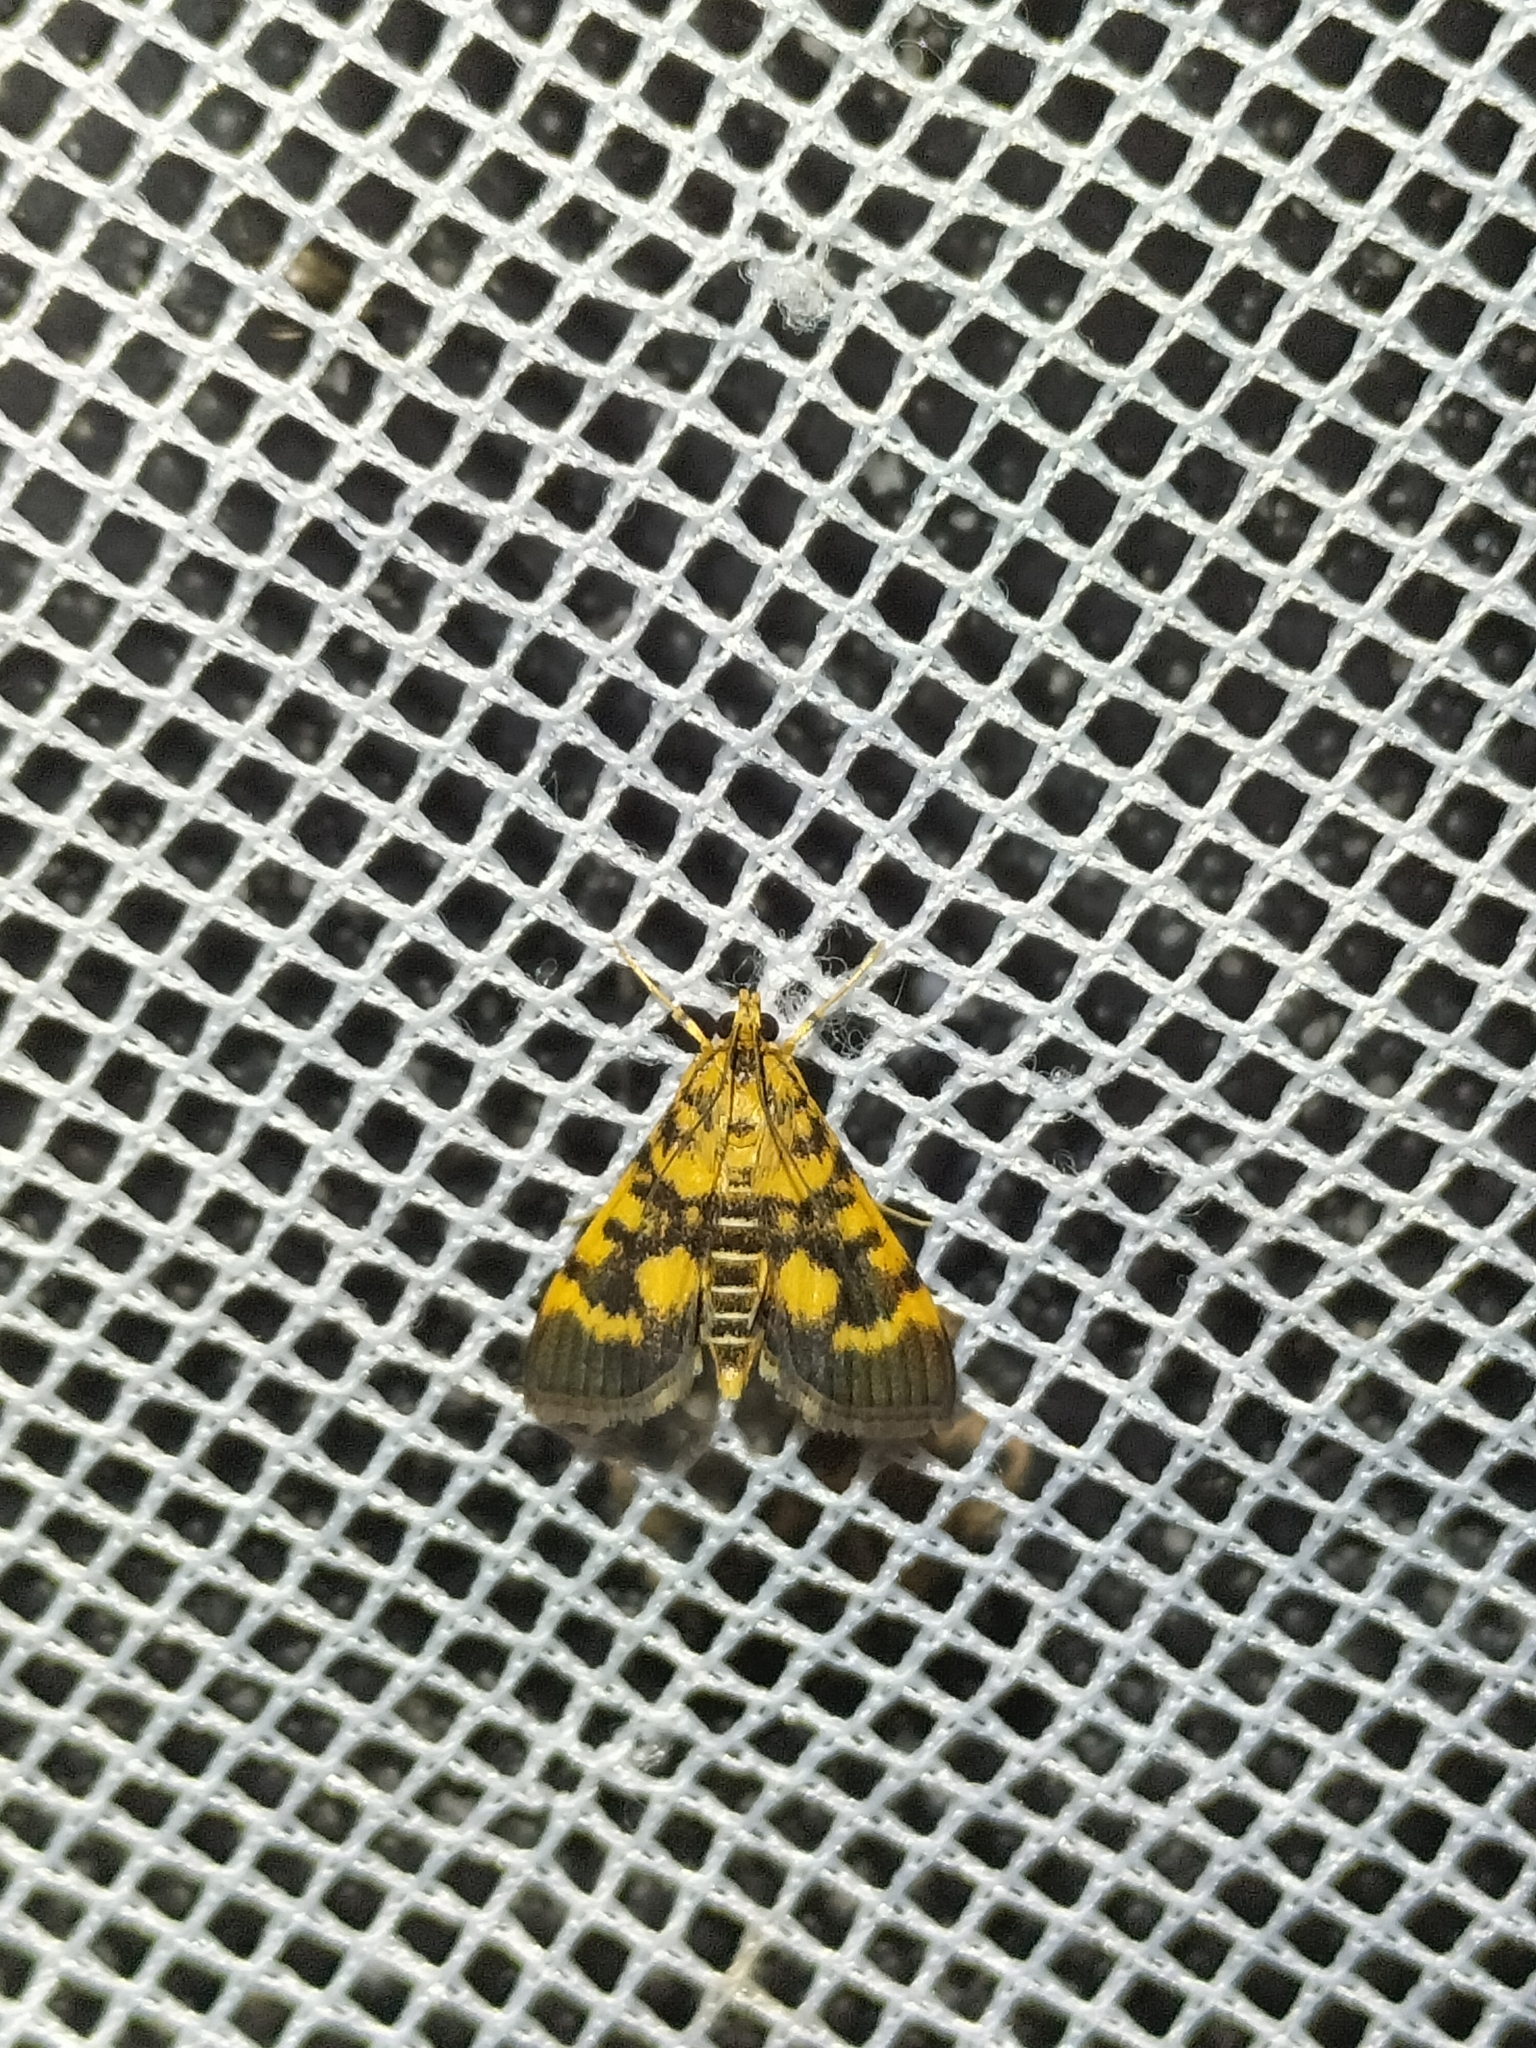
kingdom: Animalia
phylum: Arthropoda
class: Insecta
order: Lepidoptera
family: Crambidae
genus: Omiodes
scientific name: Omiodes diemenalis
